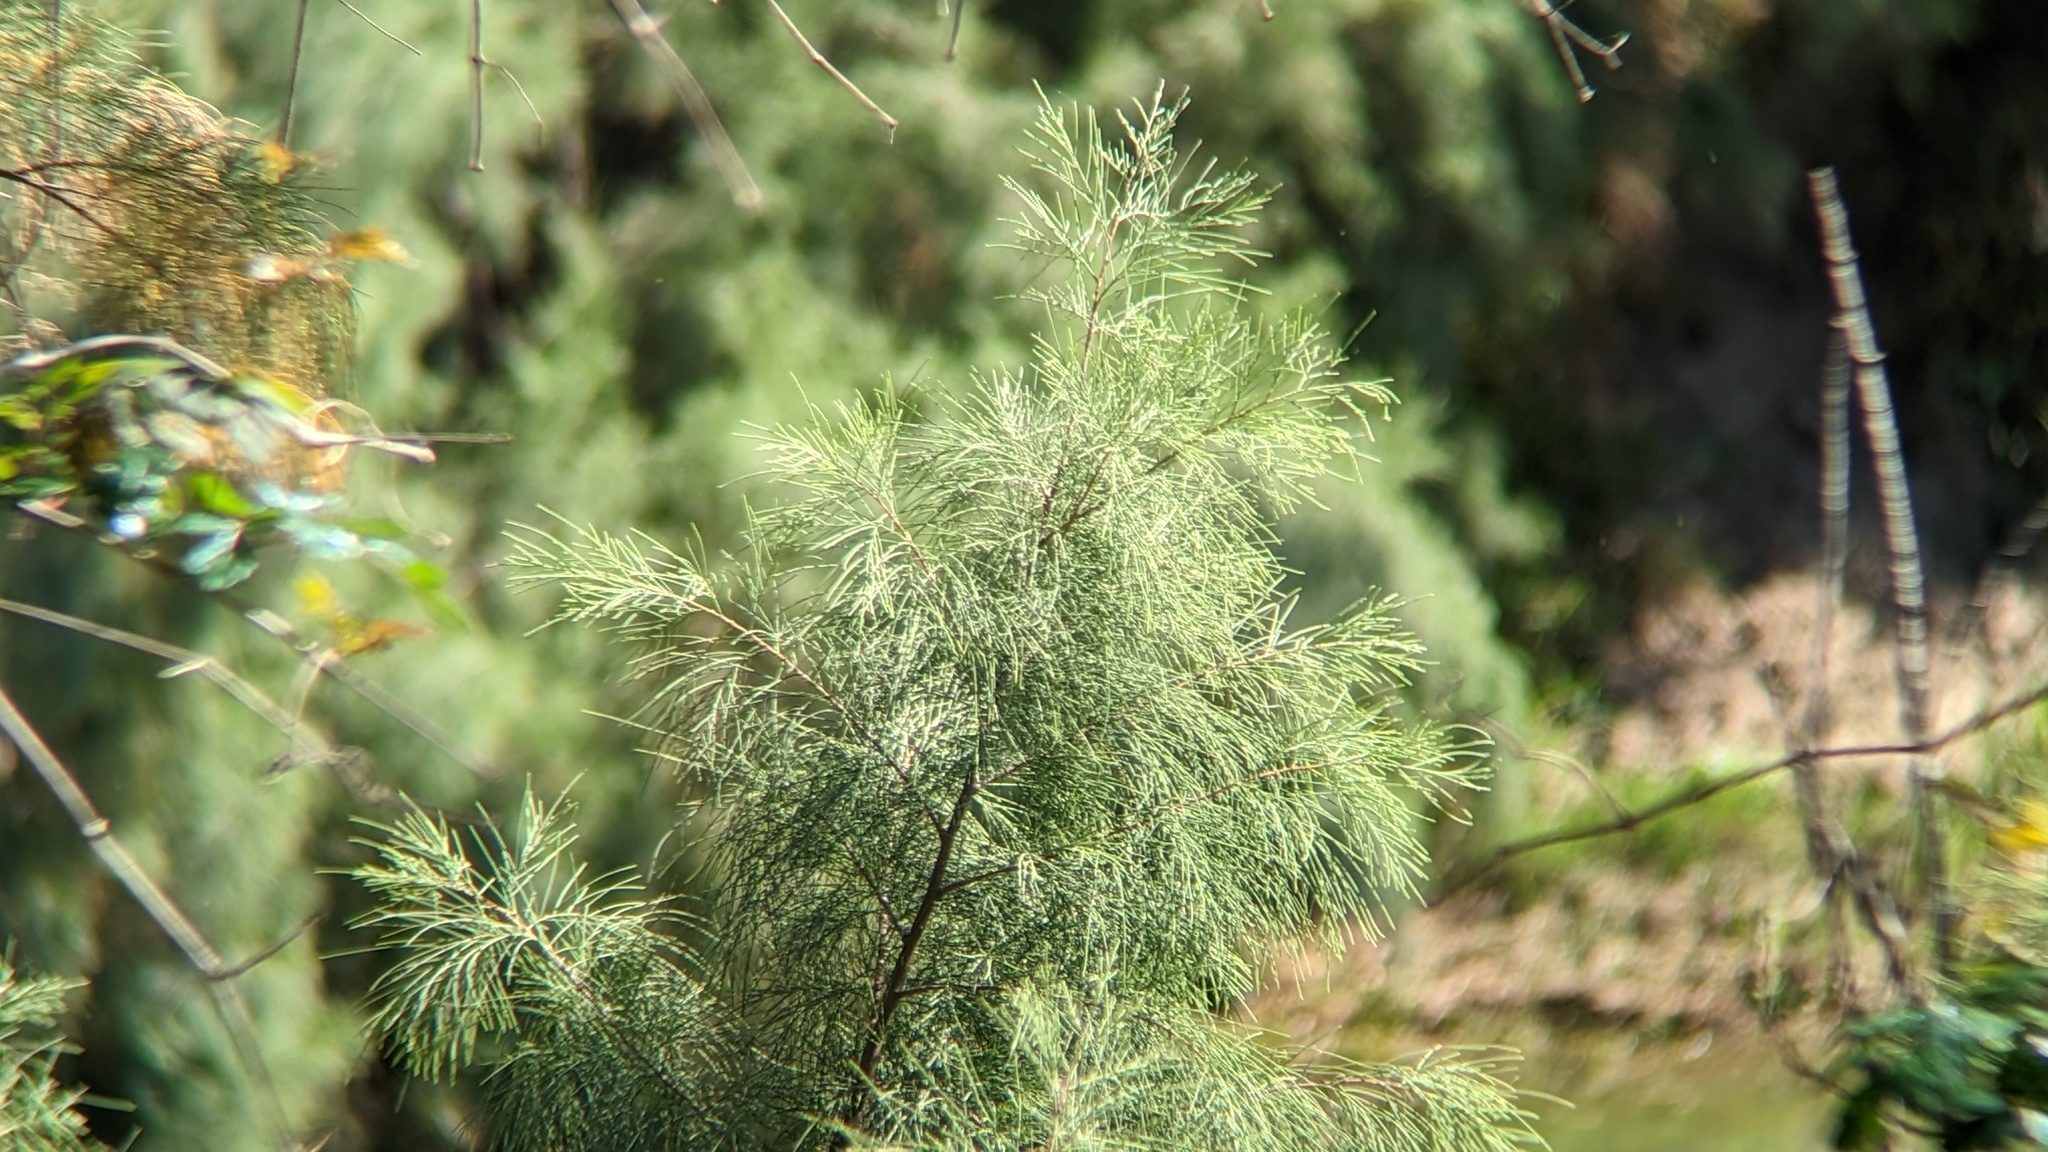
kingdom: Plantae
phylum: Tracheophyta
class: Magnoliopsida
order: Caryophyllales
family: Tamaricaceae
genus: Tamarix
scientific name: Tamarix aphylla
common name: Athel tamarisk
